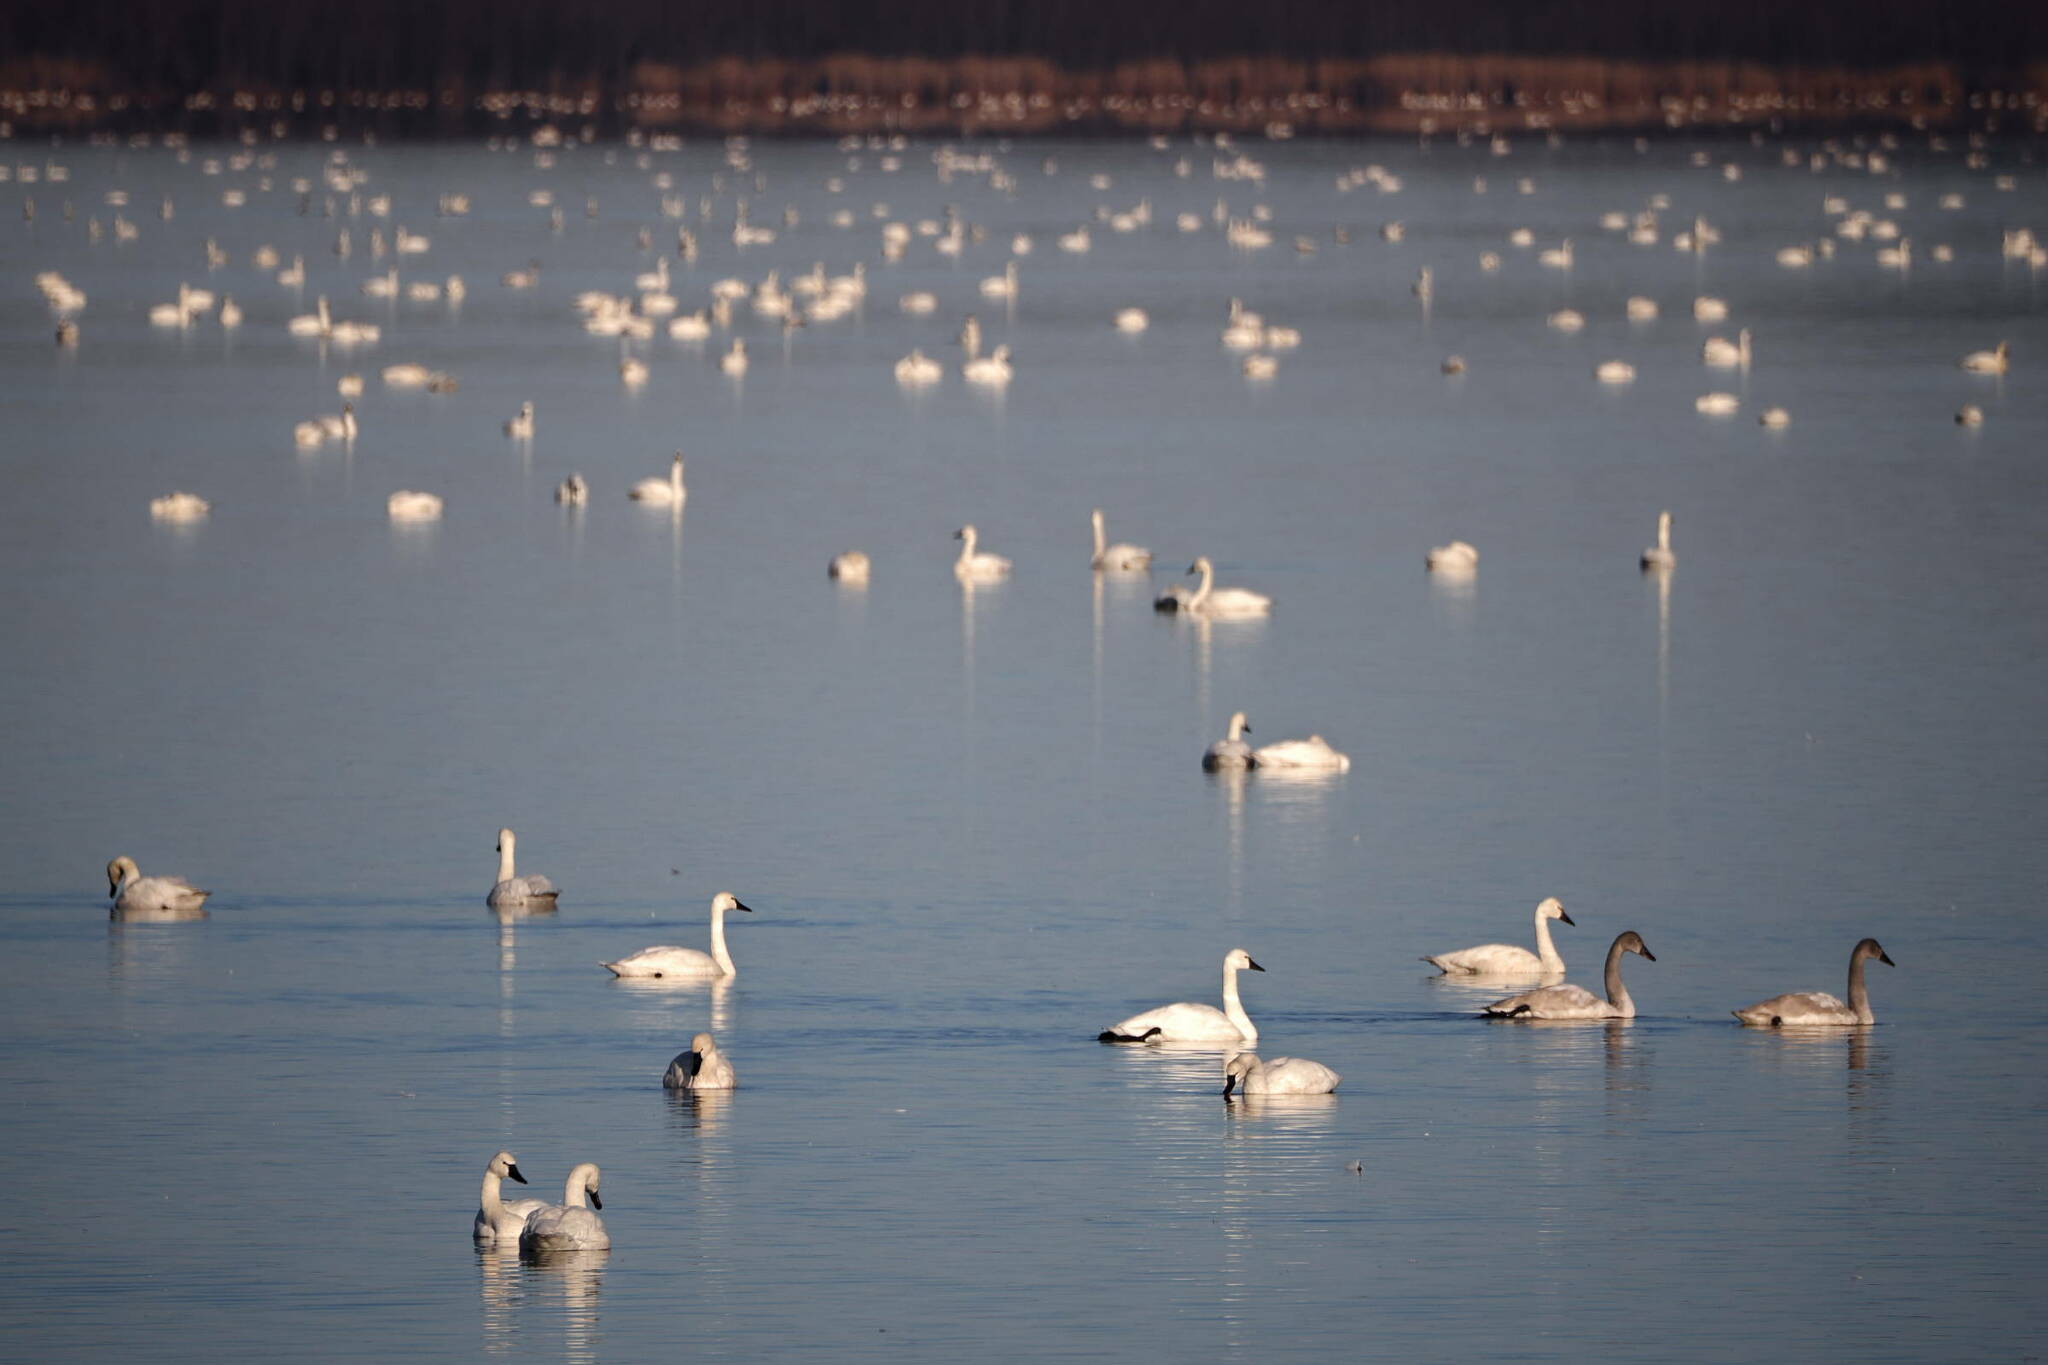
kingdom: Animalia
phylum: Chordata
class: Aves
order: Anseriformes
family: Anatidae
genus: Cygnus
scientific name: Cygnus columbianus
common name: Tundra swan
